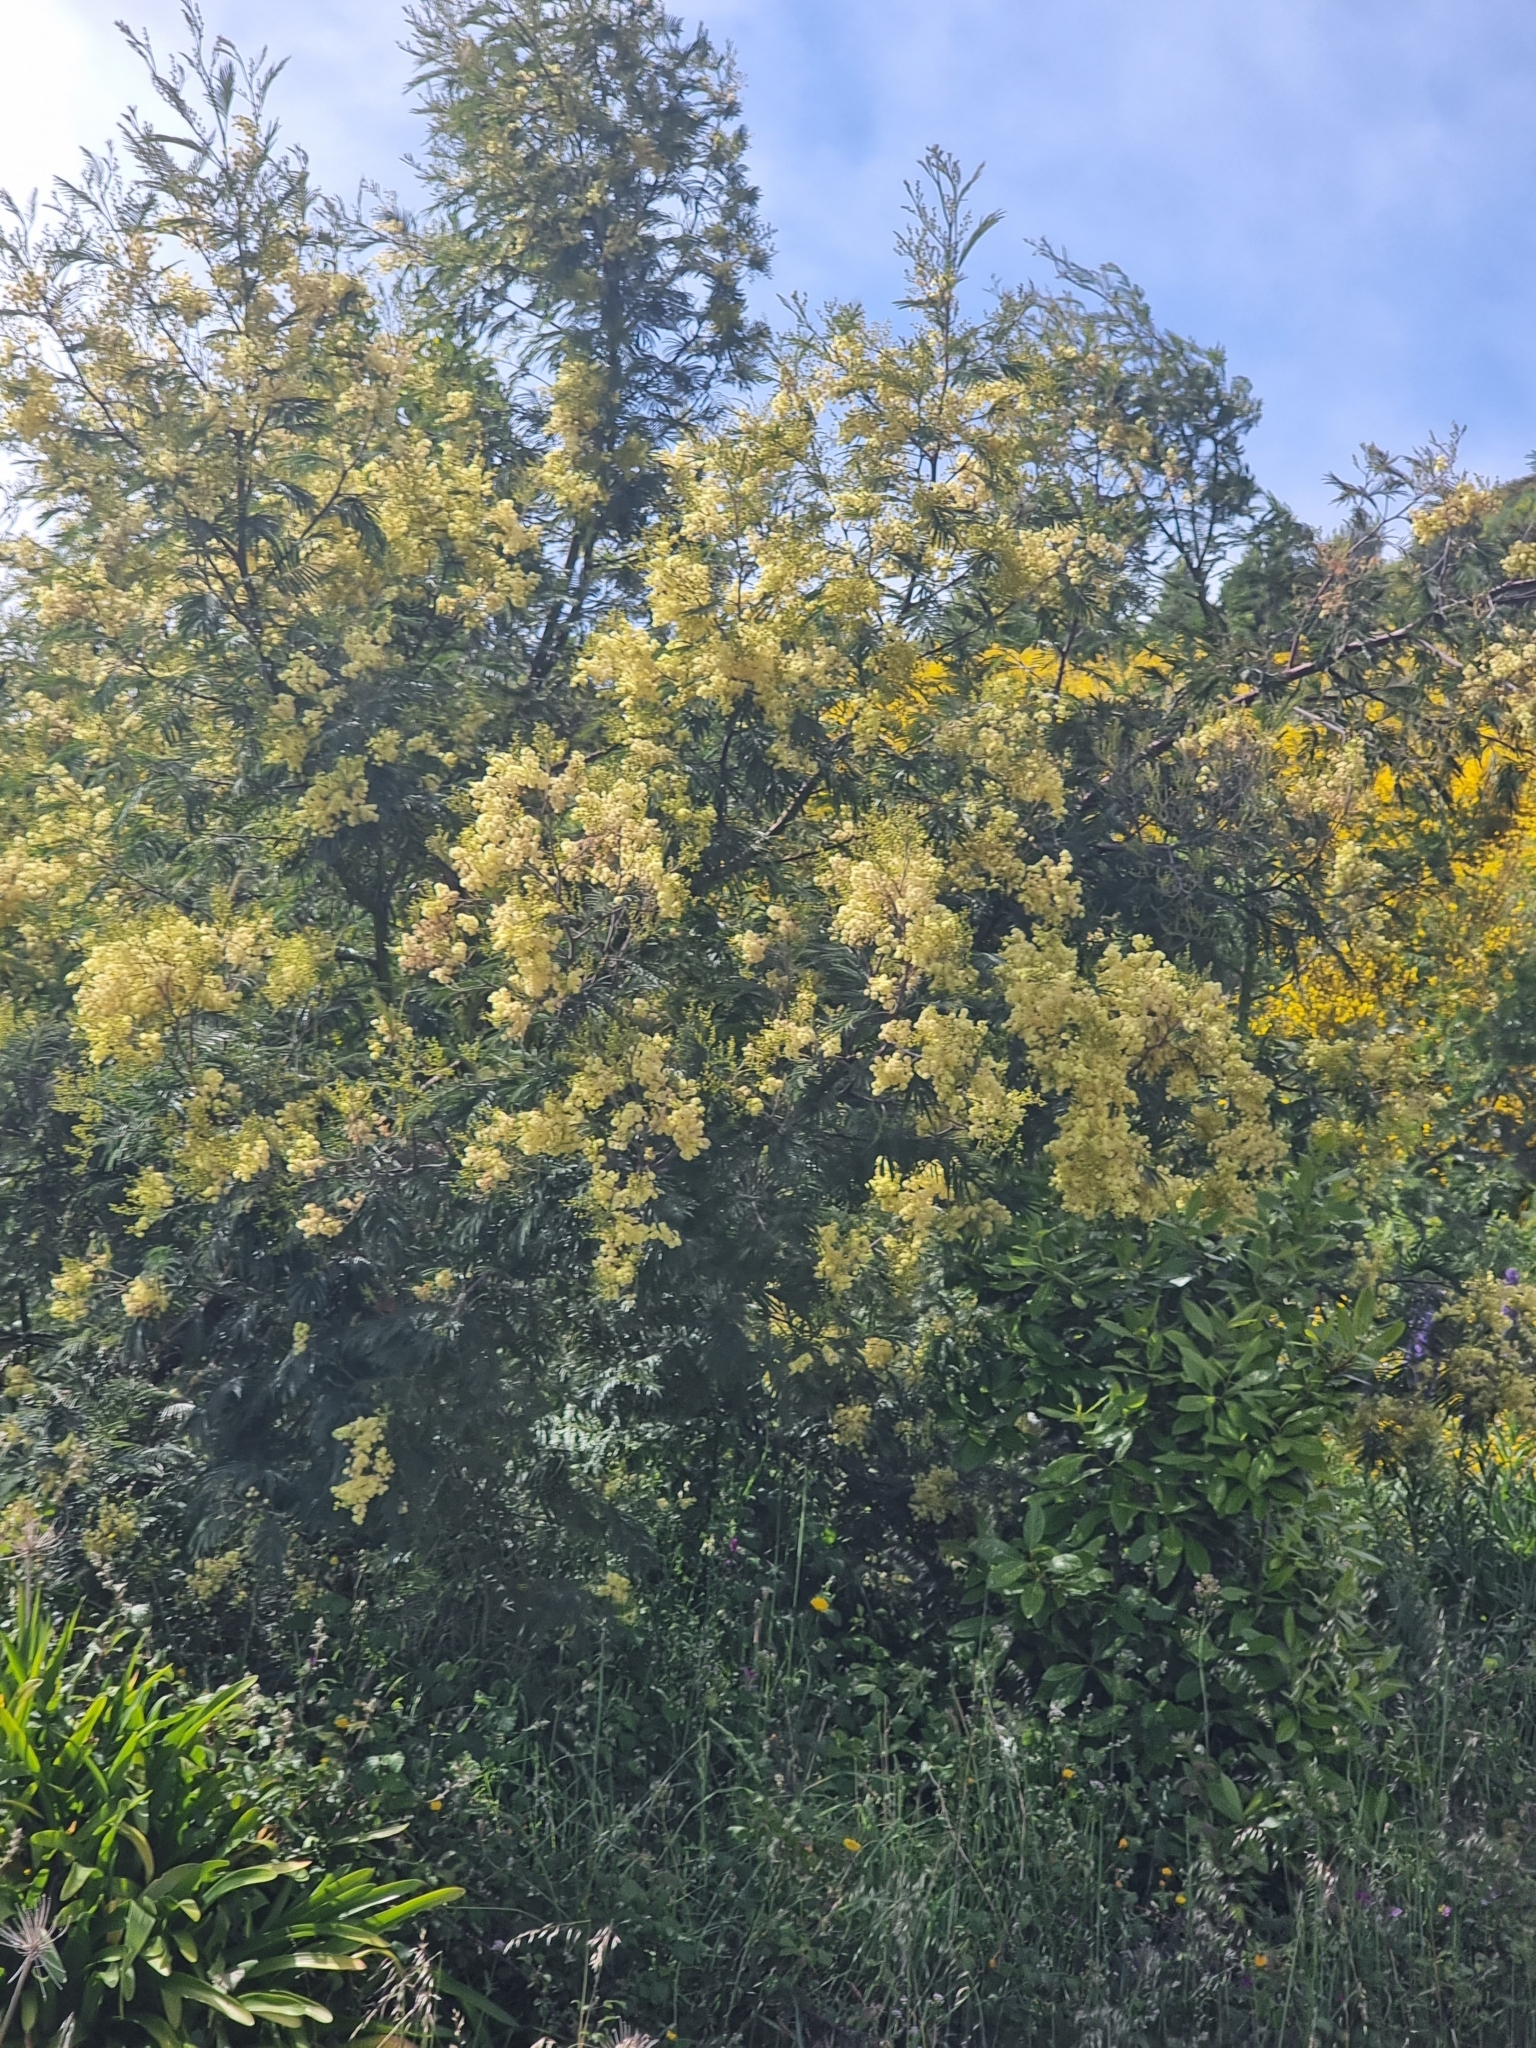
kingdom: Plantae
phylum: Tracheophyta
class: Magnoliopsida
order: Fabales
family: Fabaceae
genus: Acacia
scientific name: Acacia mearnsii
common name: Black wattle
